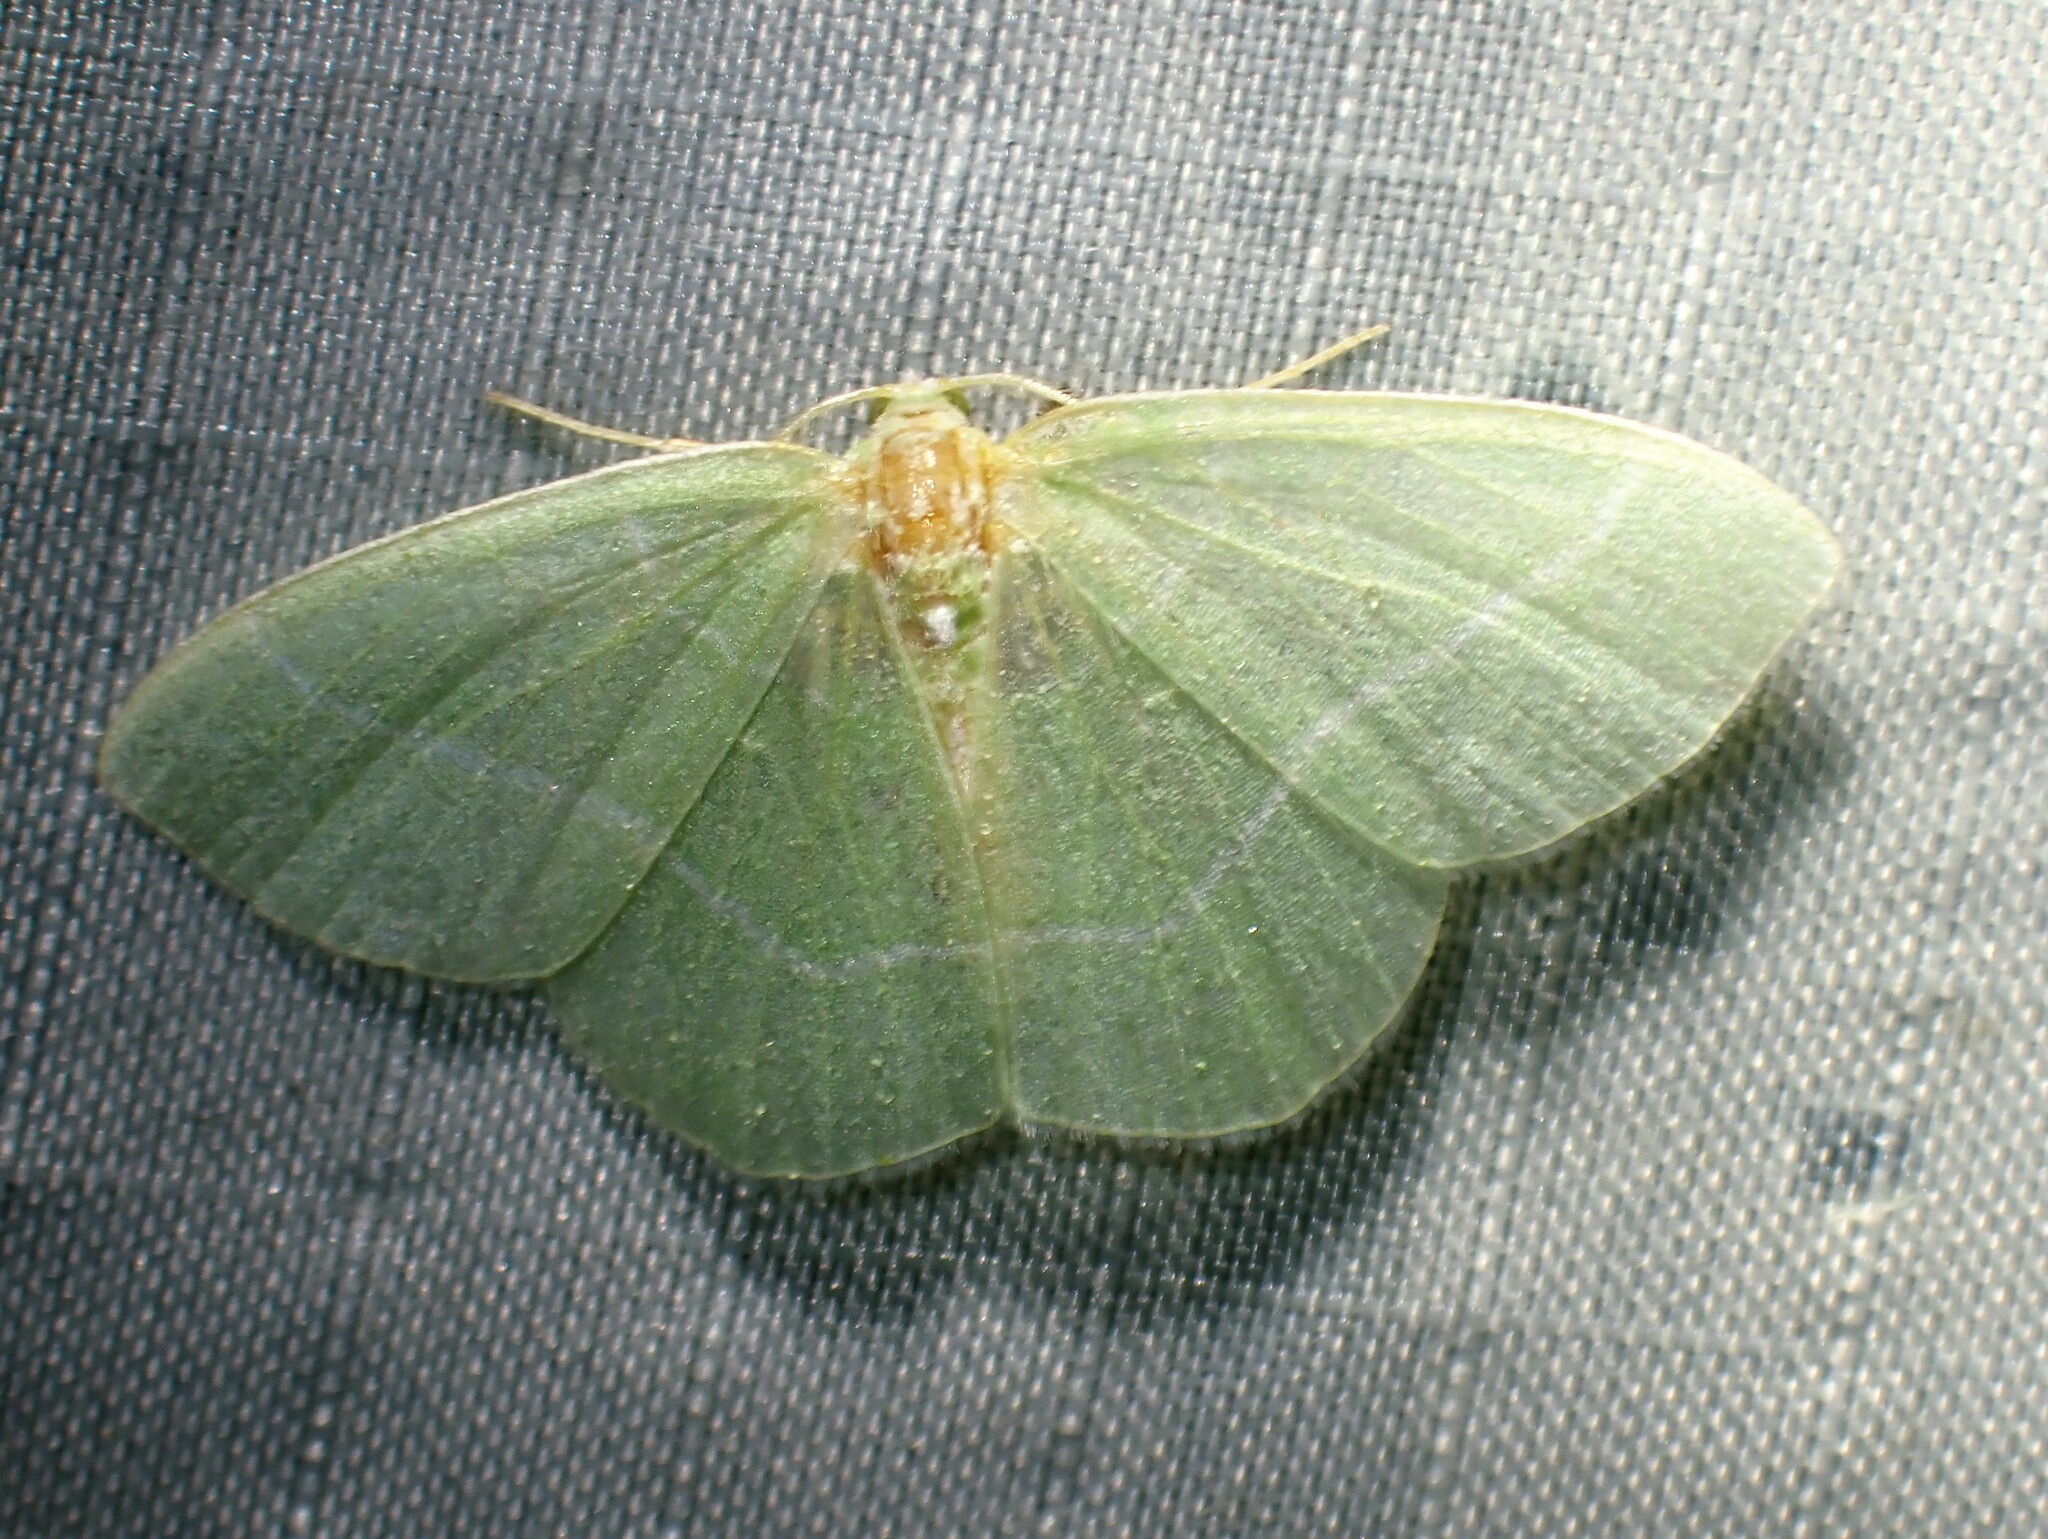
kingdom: Animalia
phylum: Arthropoda
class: Insecta
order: Lepidoptera
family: Geometridae
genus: Nemoria
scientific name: Nemoria mimosaria
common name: White-fringed emerald
